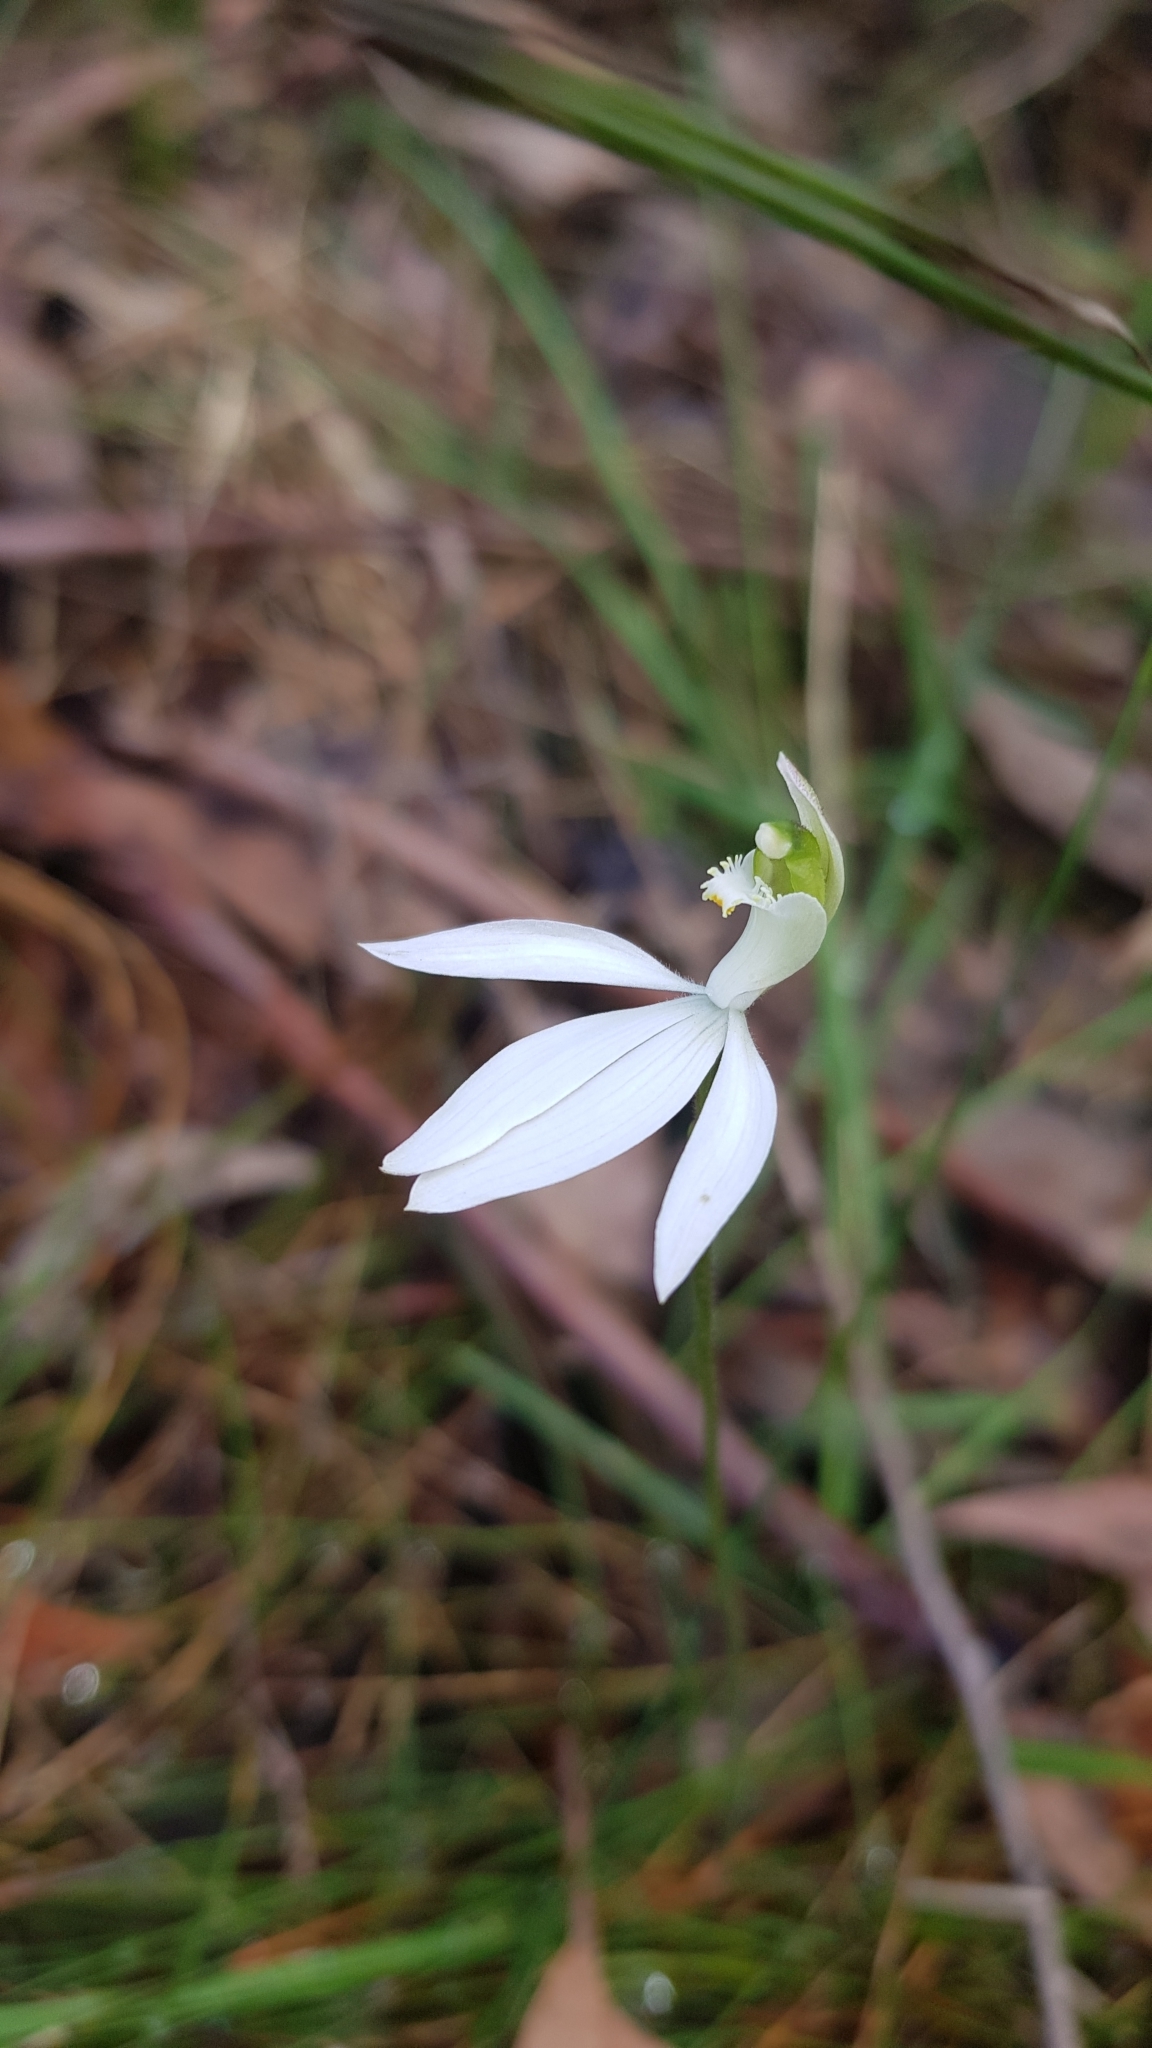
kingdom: Plantae
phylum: Tracheophyta
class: Liliopsida
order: Asparagales
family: Orchidaceae
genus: Caladenia
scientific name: Caladenia catenata
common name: White caladenia
